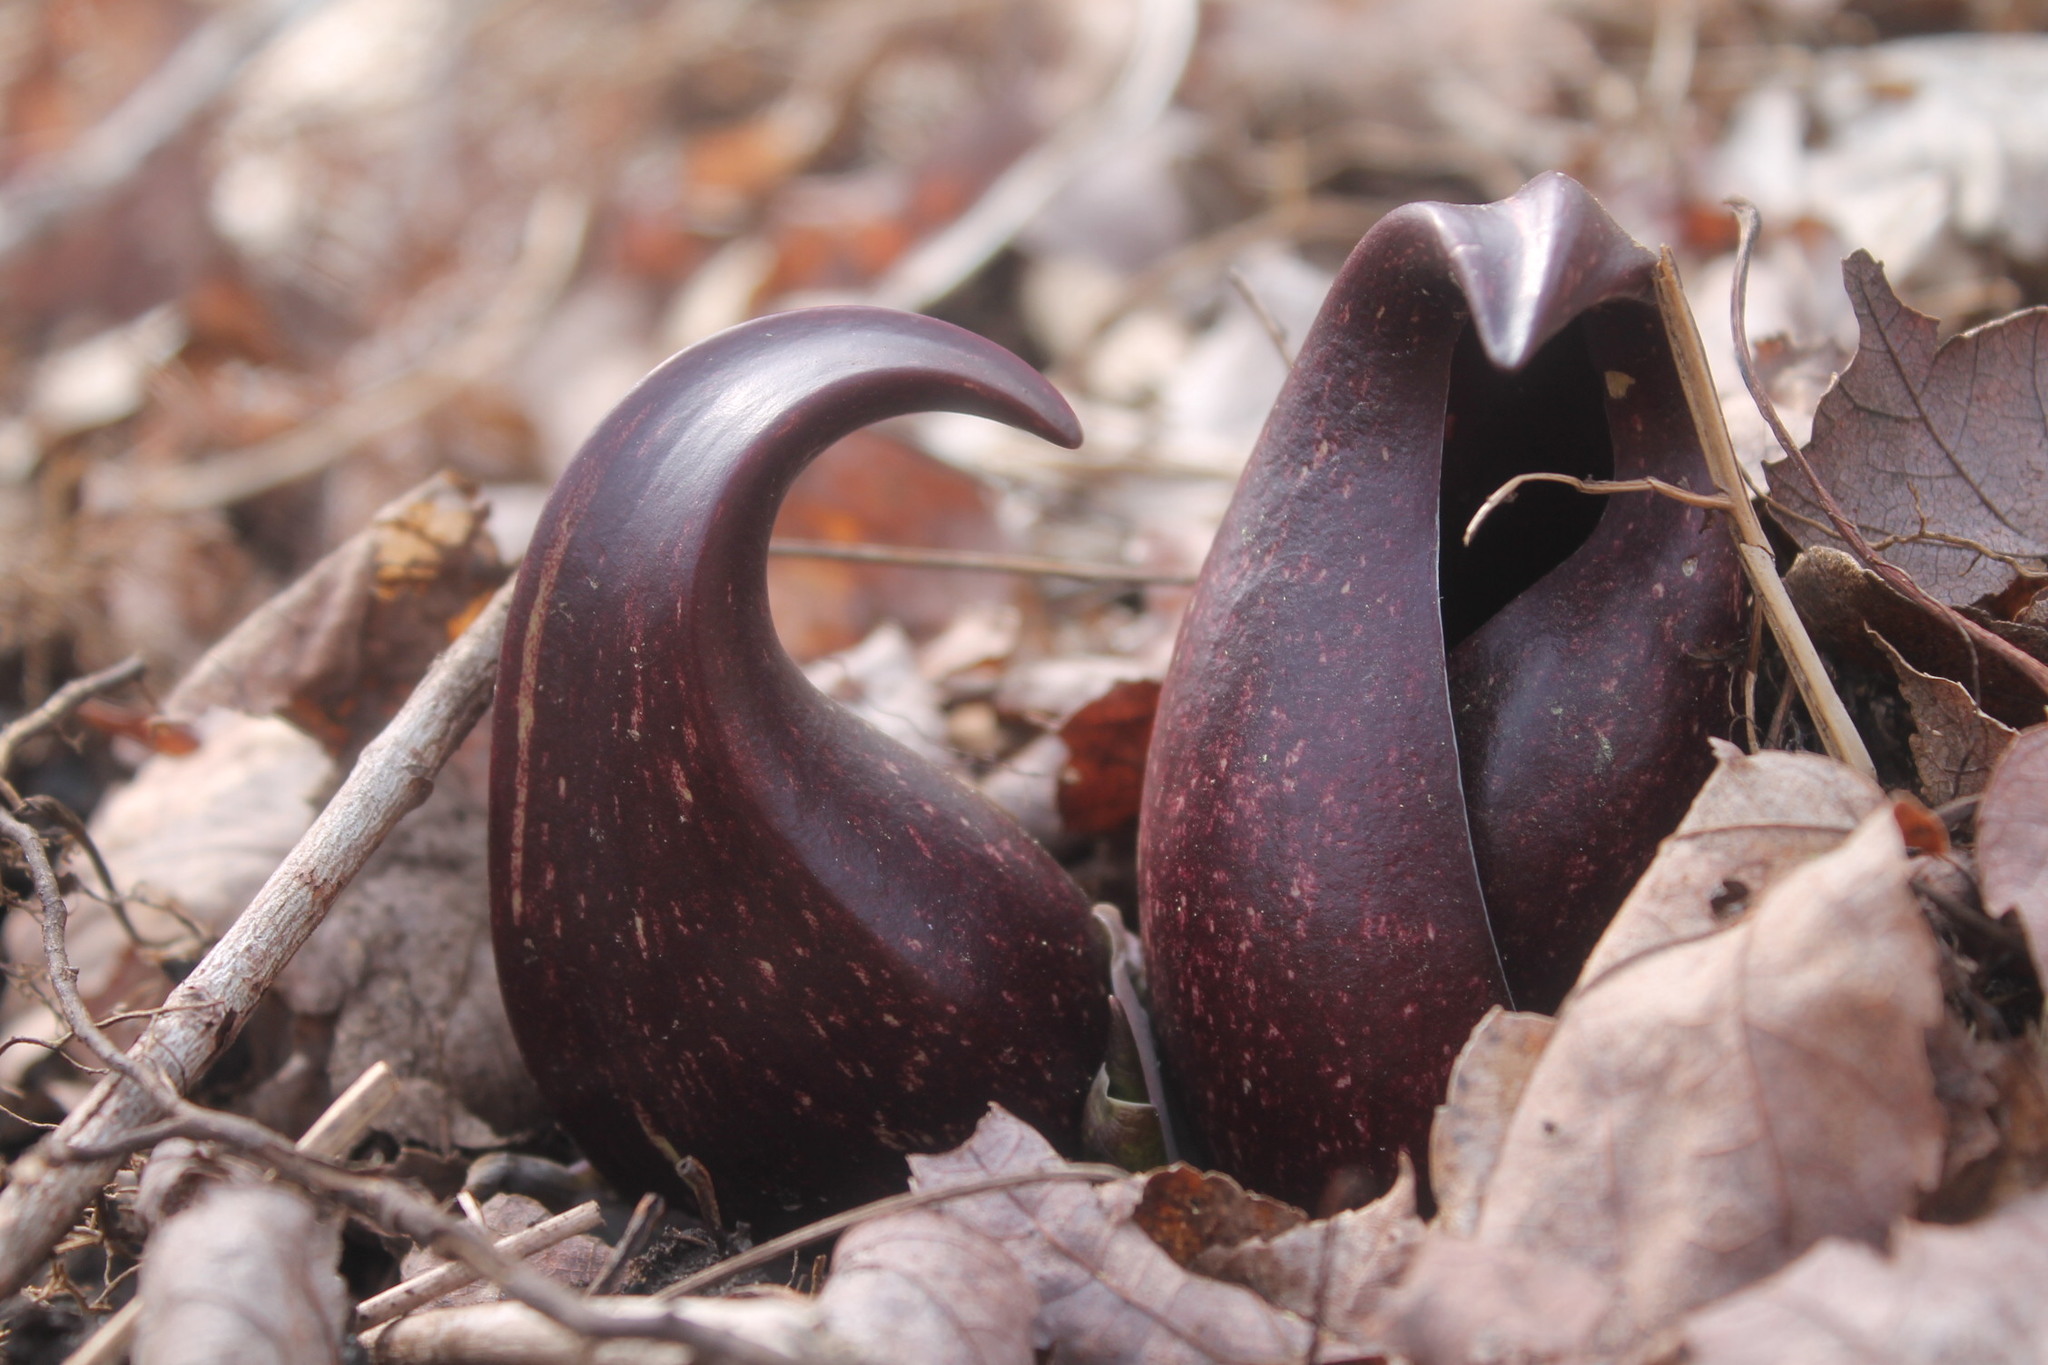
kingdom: Plantae
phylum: Tracheophyta
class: Liliopsida
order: Alismatales
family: Araceae
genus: Symplocarpus
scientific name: Symplocarpus foetidus
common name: Eastern skunk cabbage
